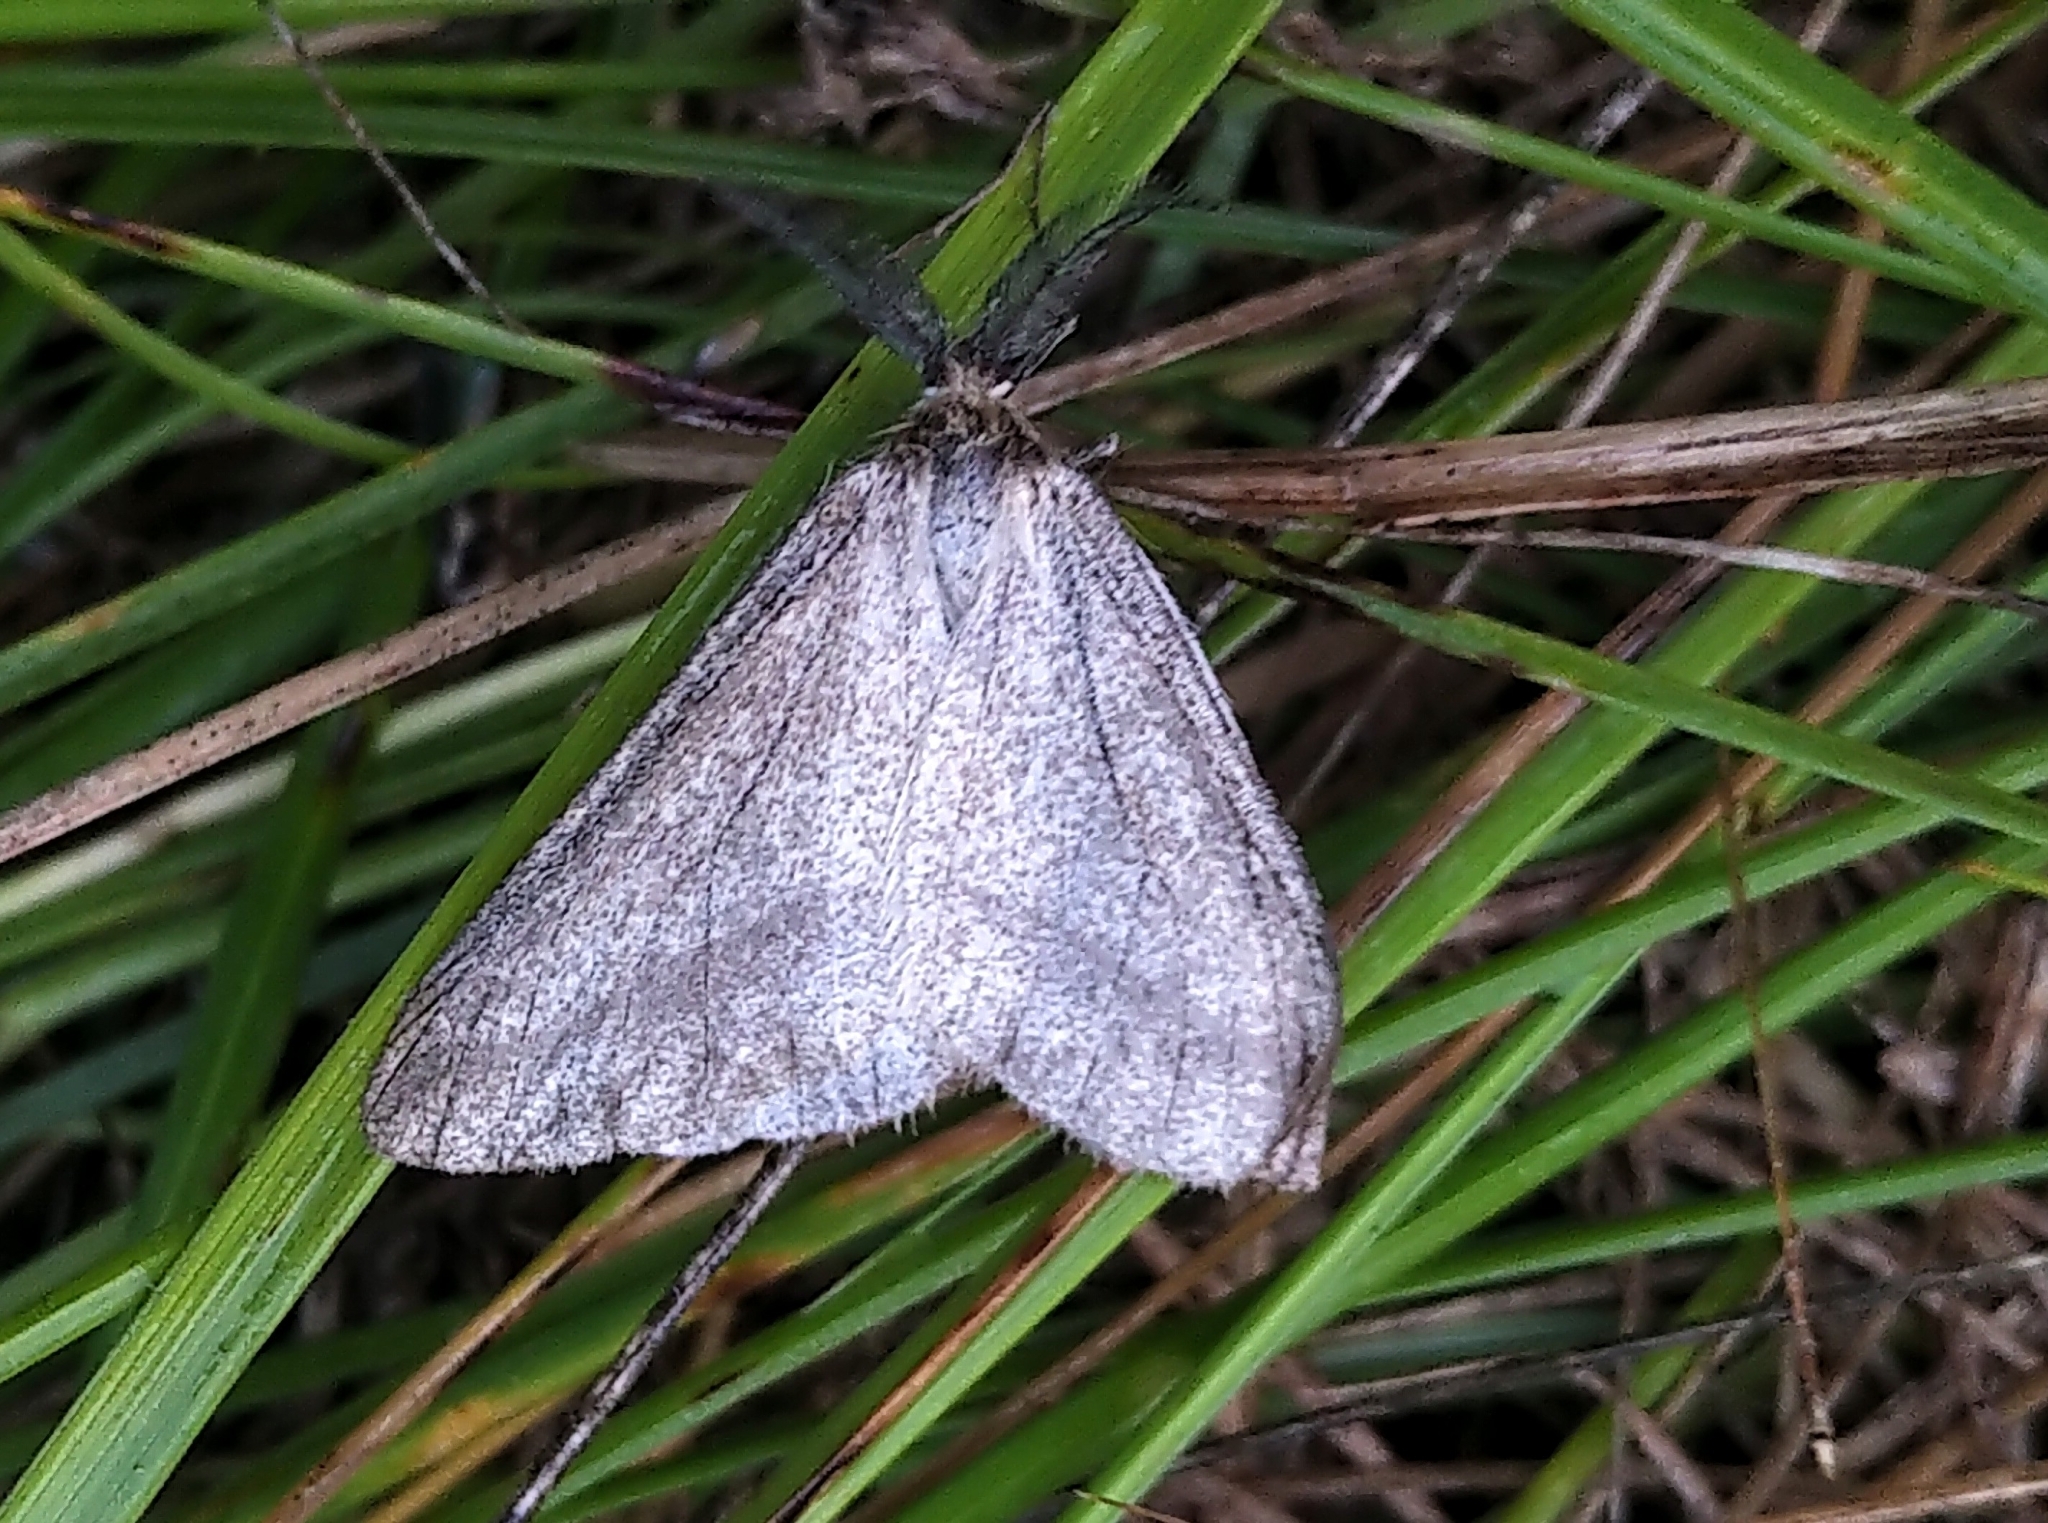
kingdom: Animalia
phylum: Arthropoda
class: Insecta
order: Lepidoptera
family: Geometridae
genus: Aspitates
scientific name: Aspitates aberrata
